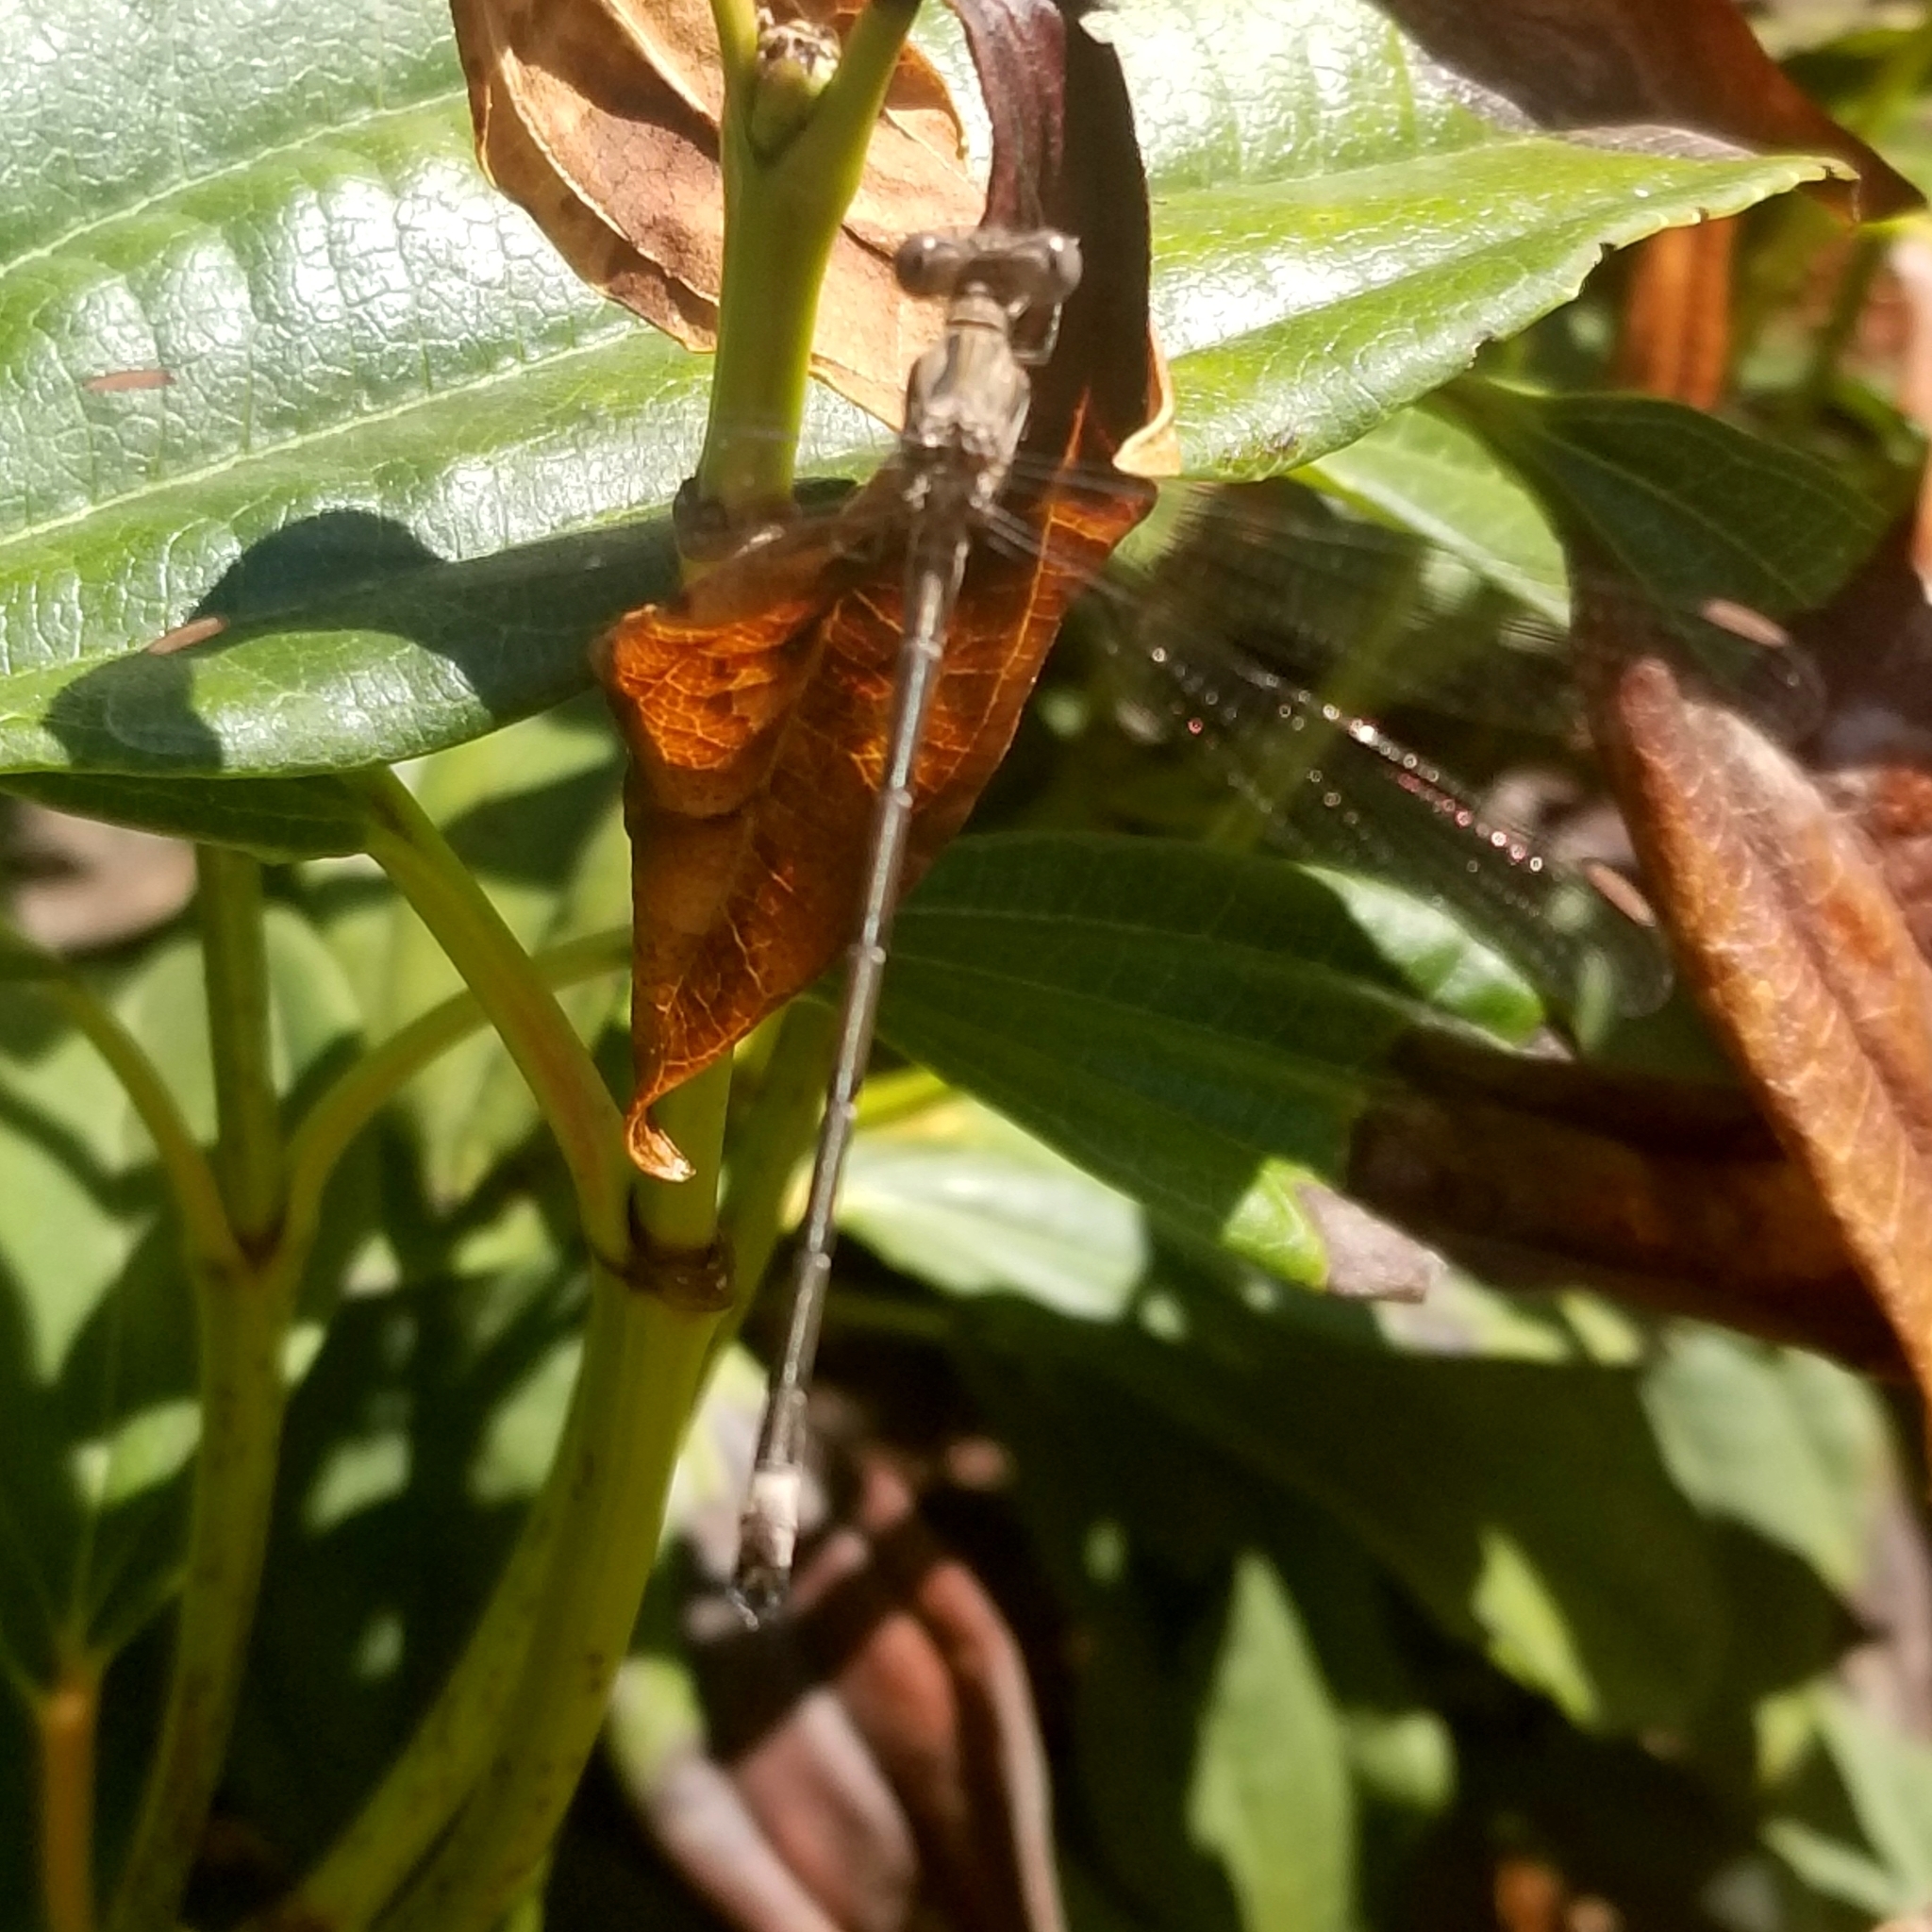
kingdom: Animalia
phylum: Arthropoda
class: Insecta
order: Odonata
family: Lestidae
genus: Archilestes
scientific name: Archilestes californicus
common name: California spreadwing
